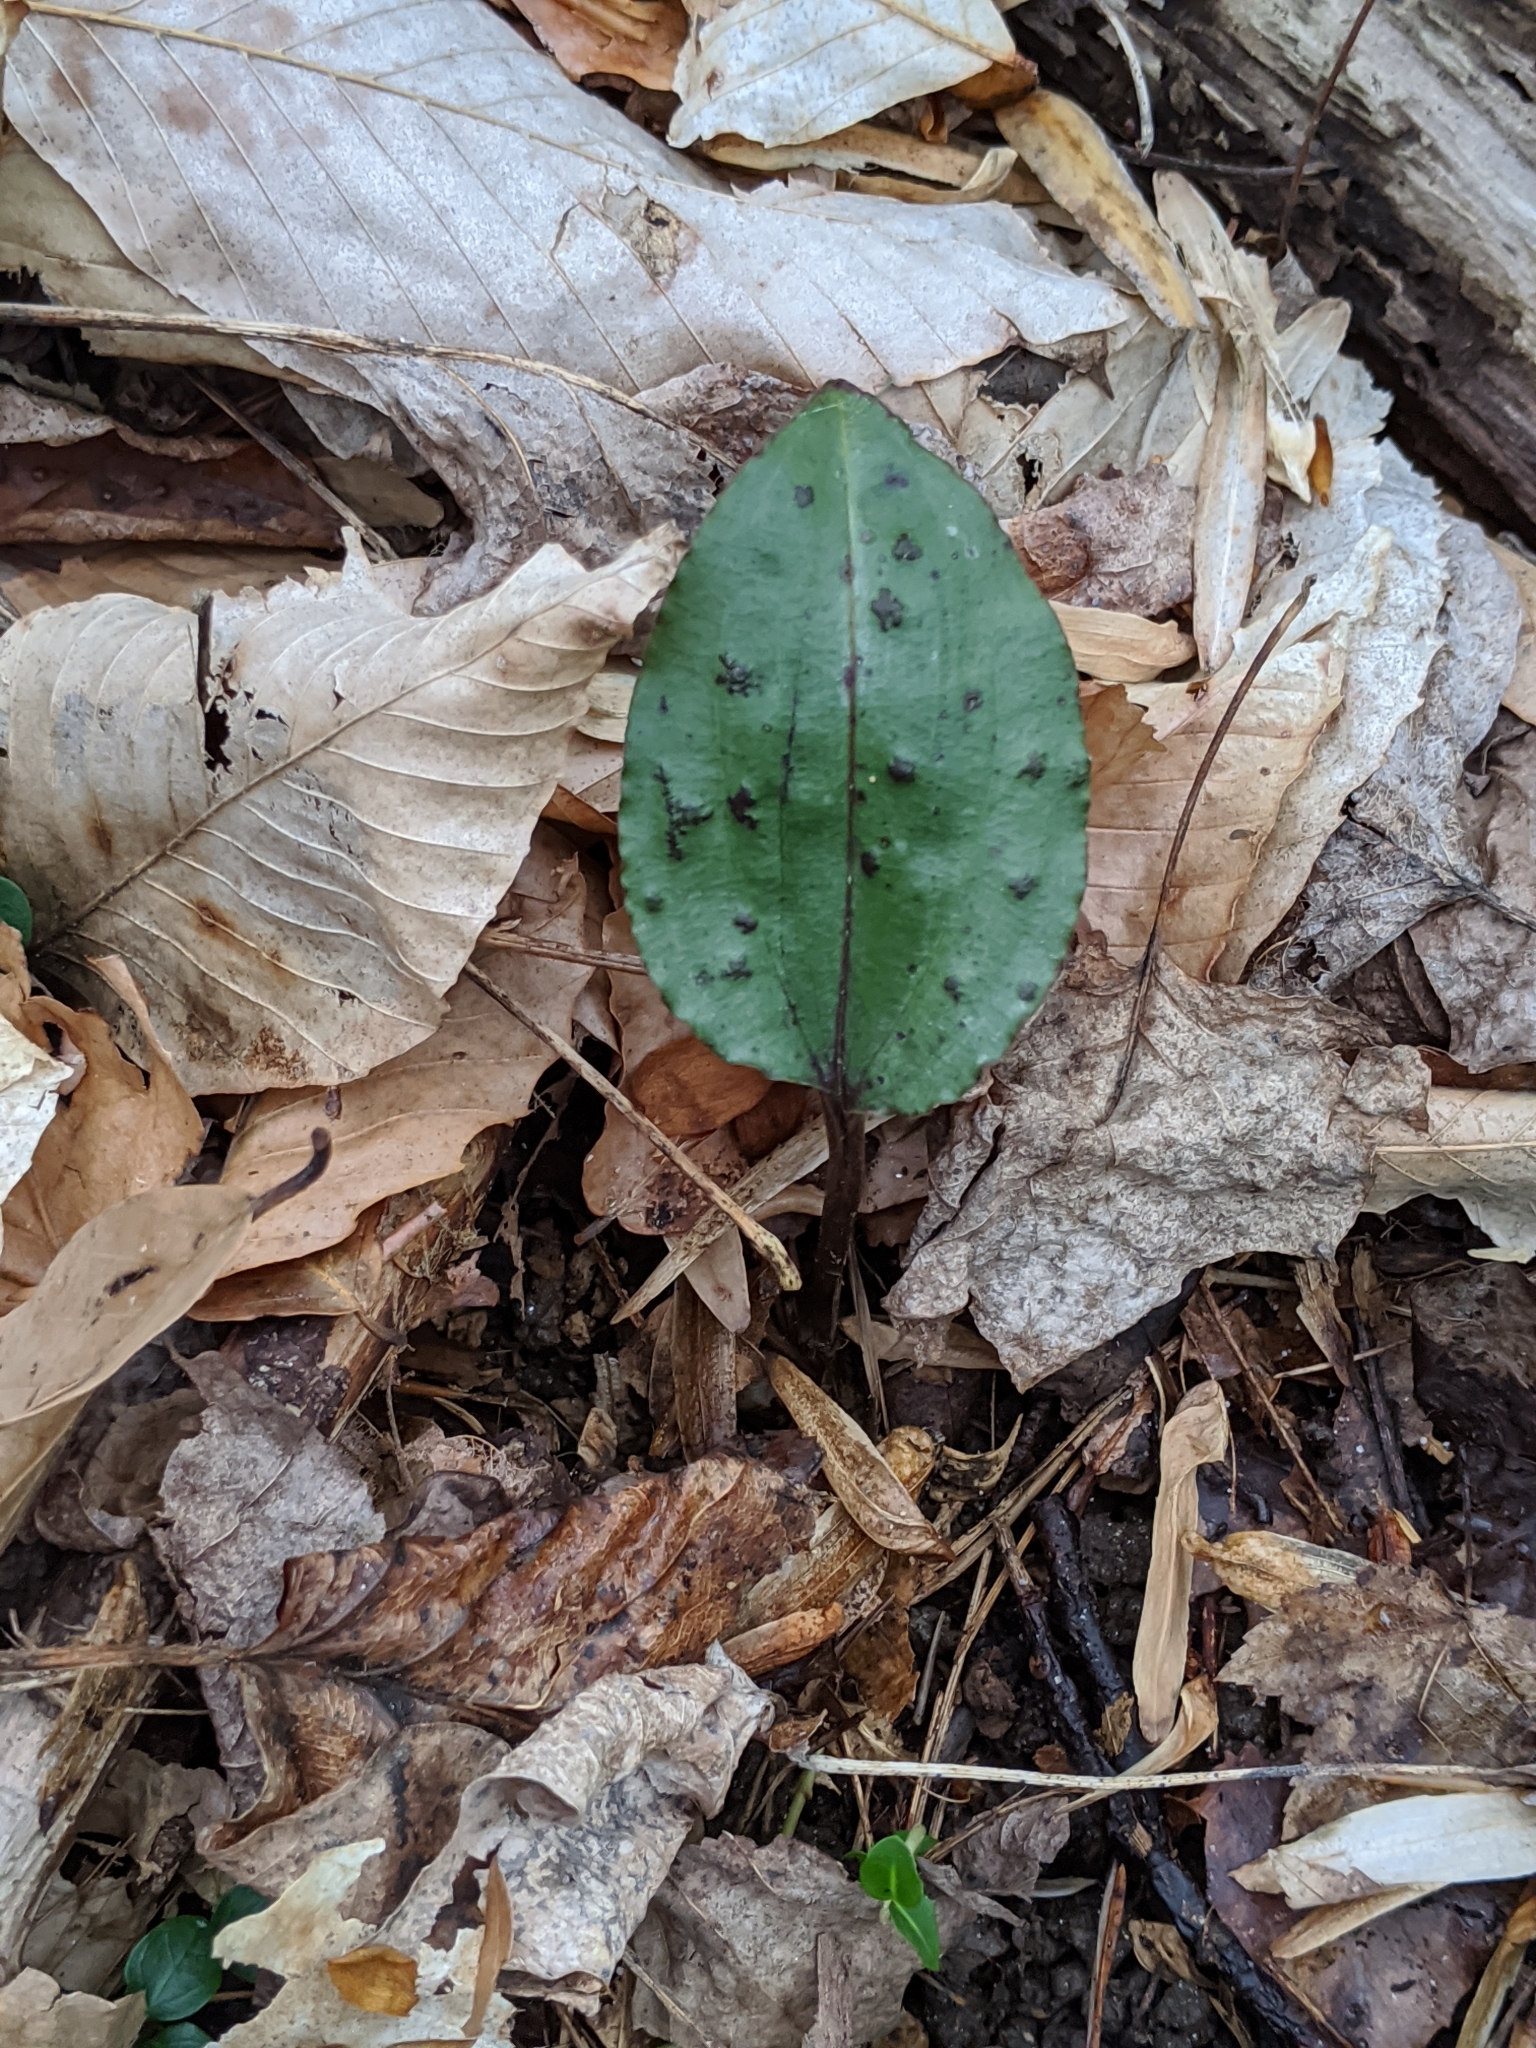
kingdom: Plantae
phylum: Tracheophyta
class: Liliopsida
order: Asparagales
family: Orchidaceae
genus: Tipularia
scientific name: Tipularia discolor
